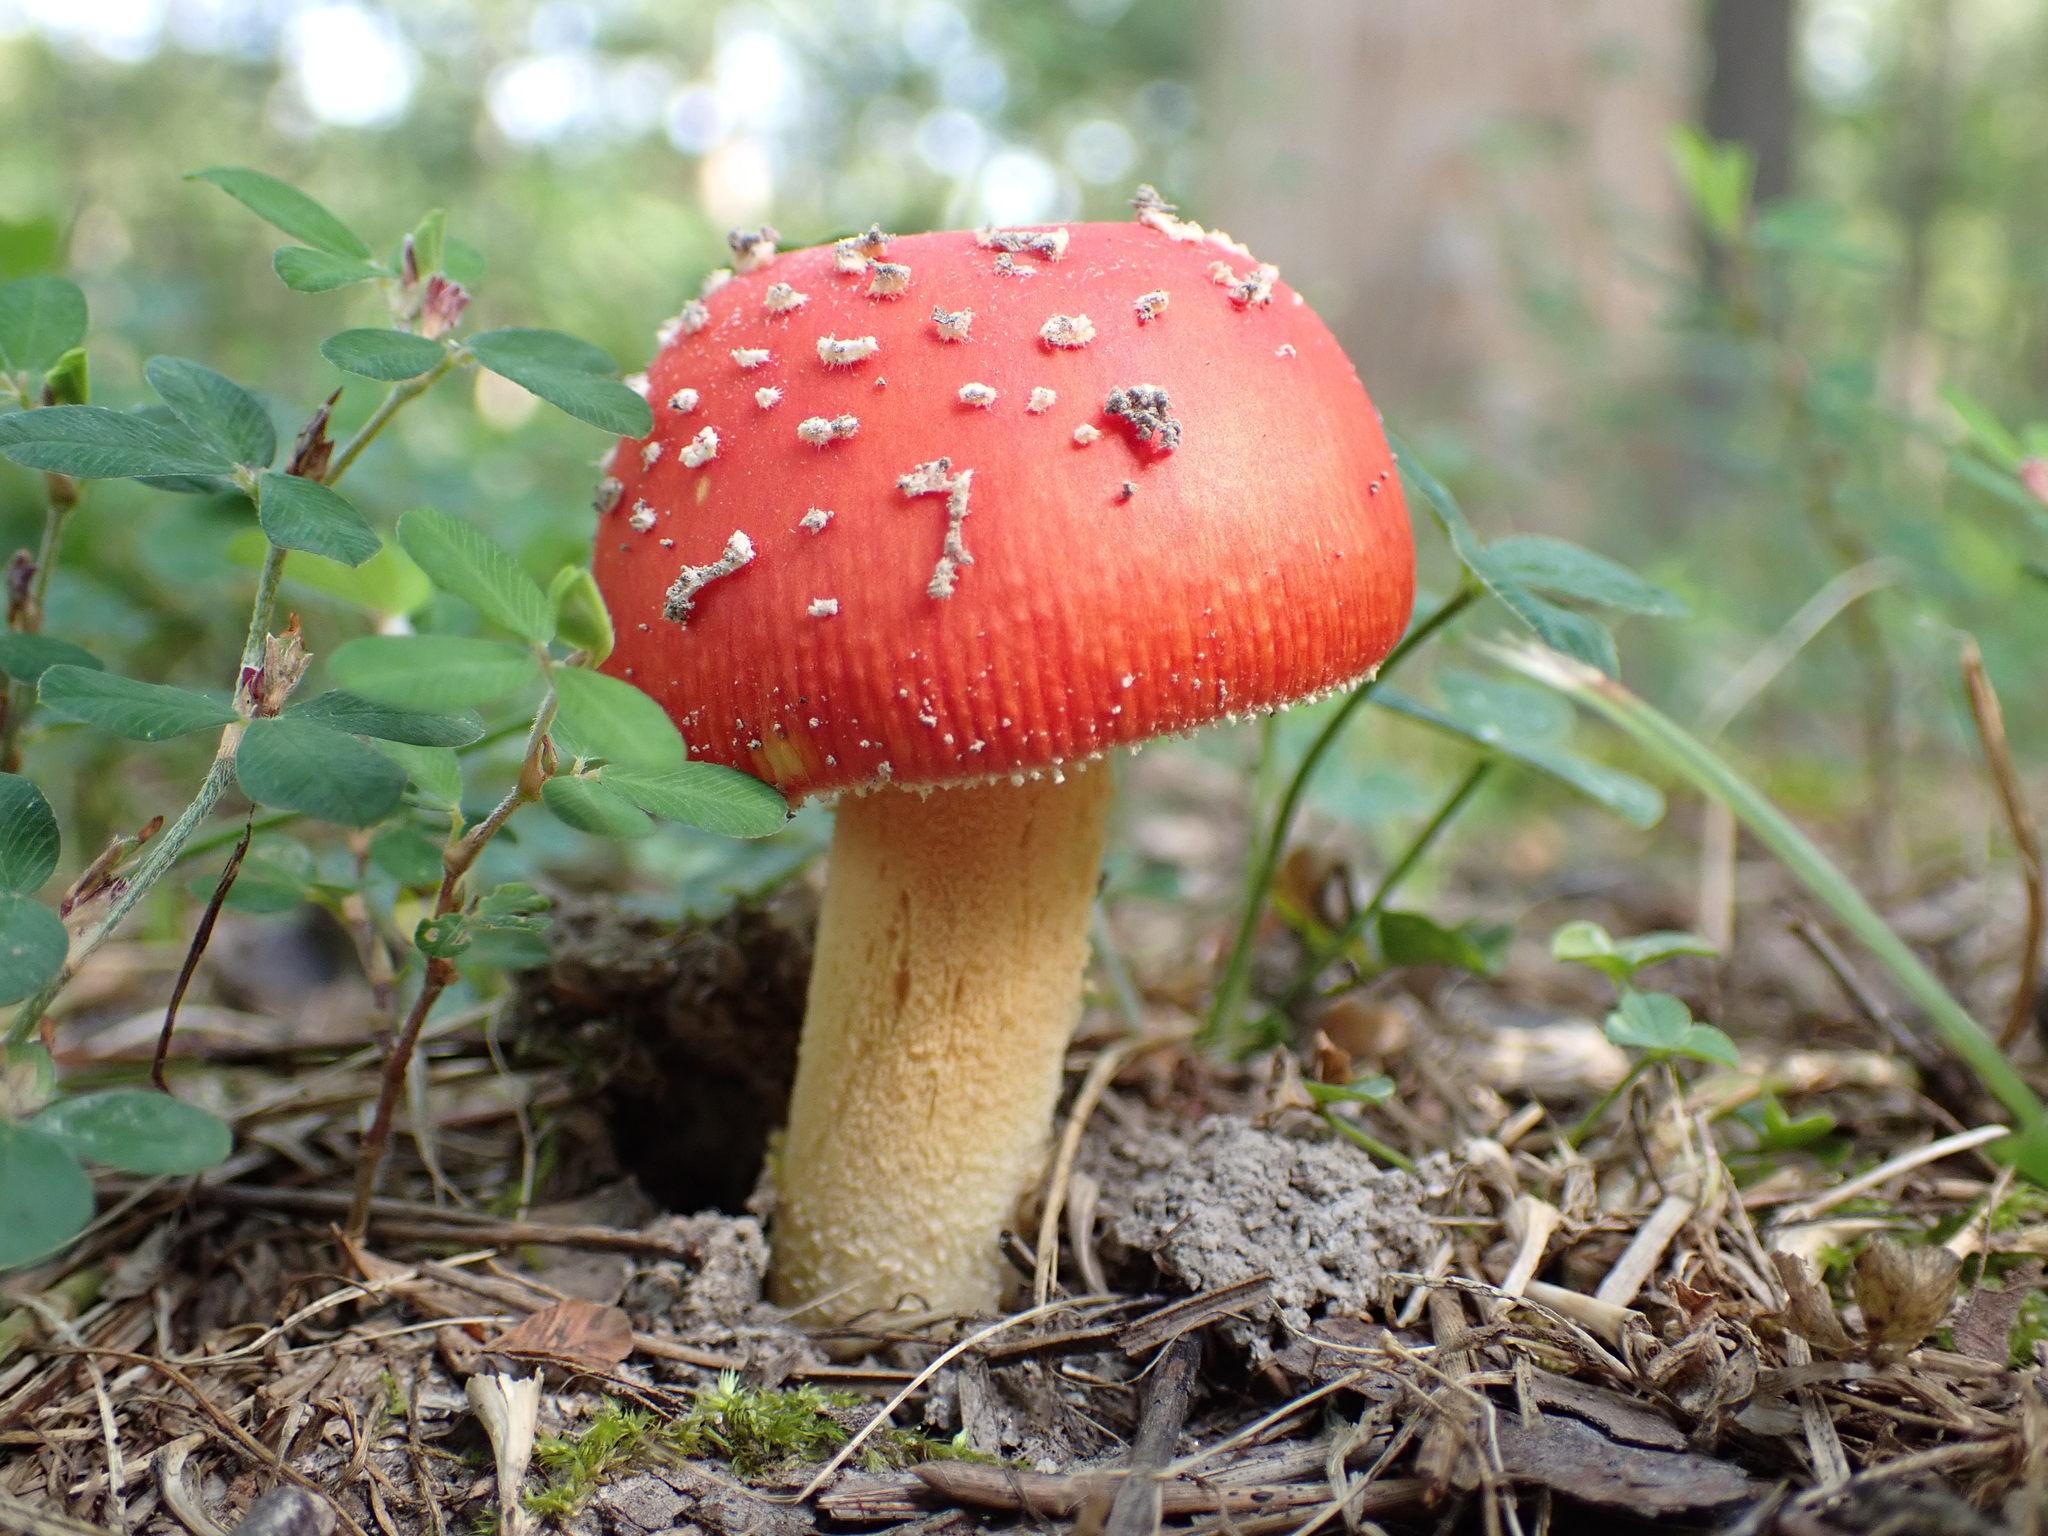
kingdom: Fungi
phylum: Basidiomycota
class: Agaricomycetes
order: Agaricales
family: Amanitaceae
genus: Amanita
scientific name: Amanita parcivolvata
